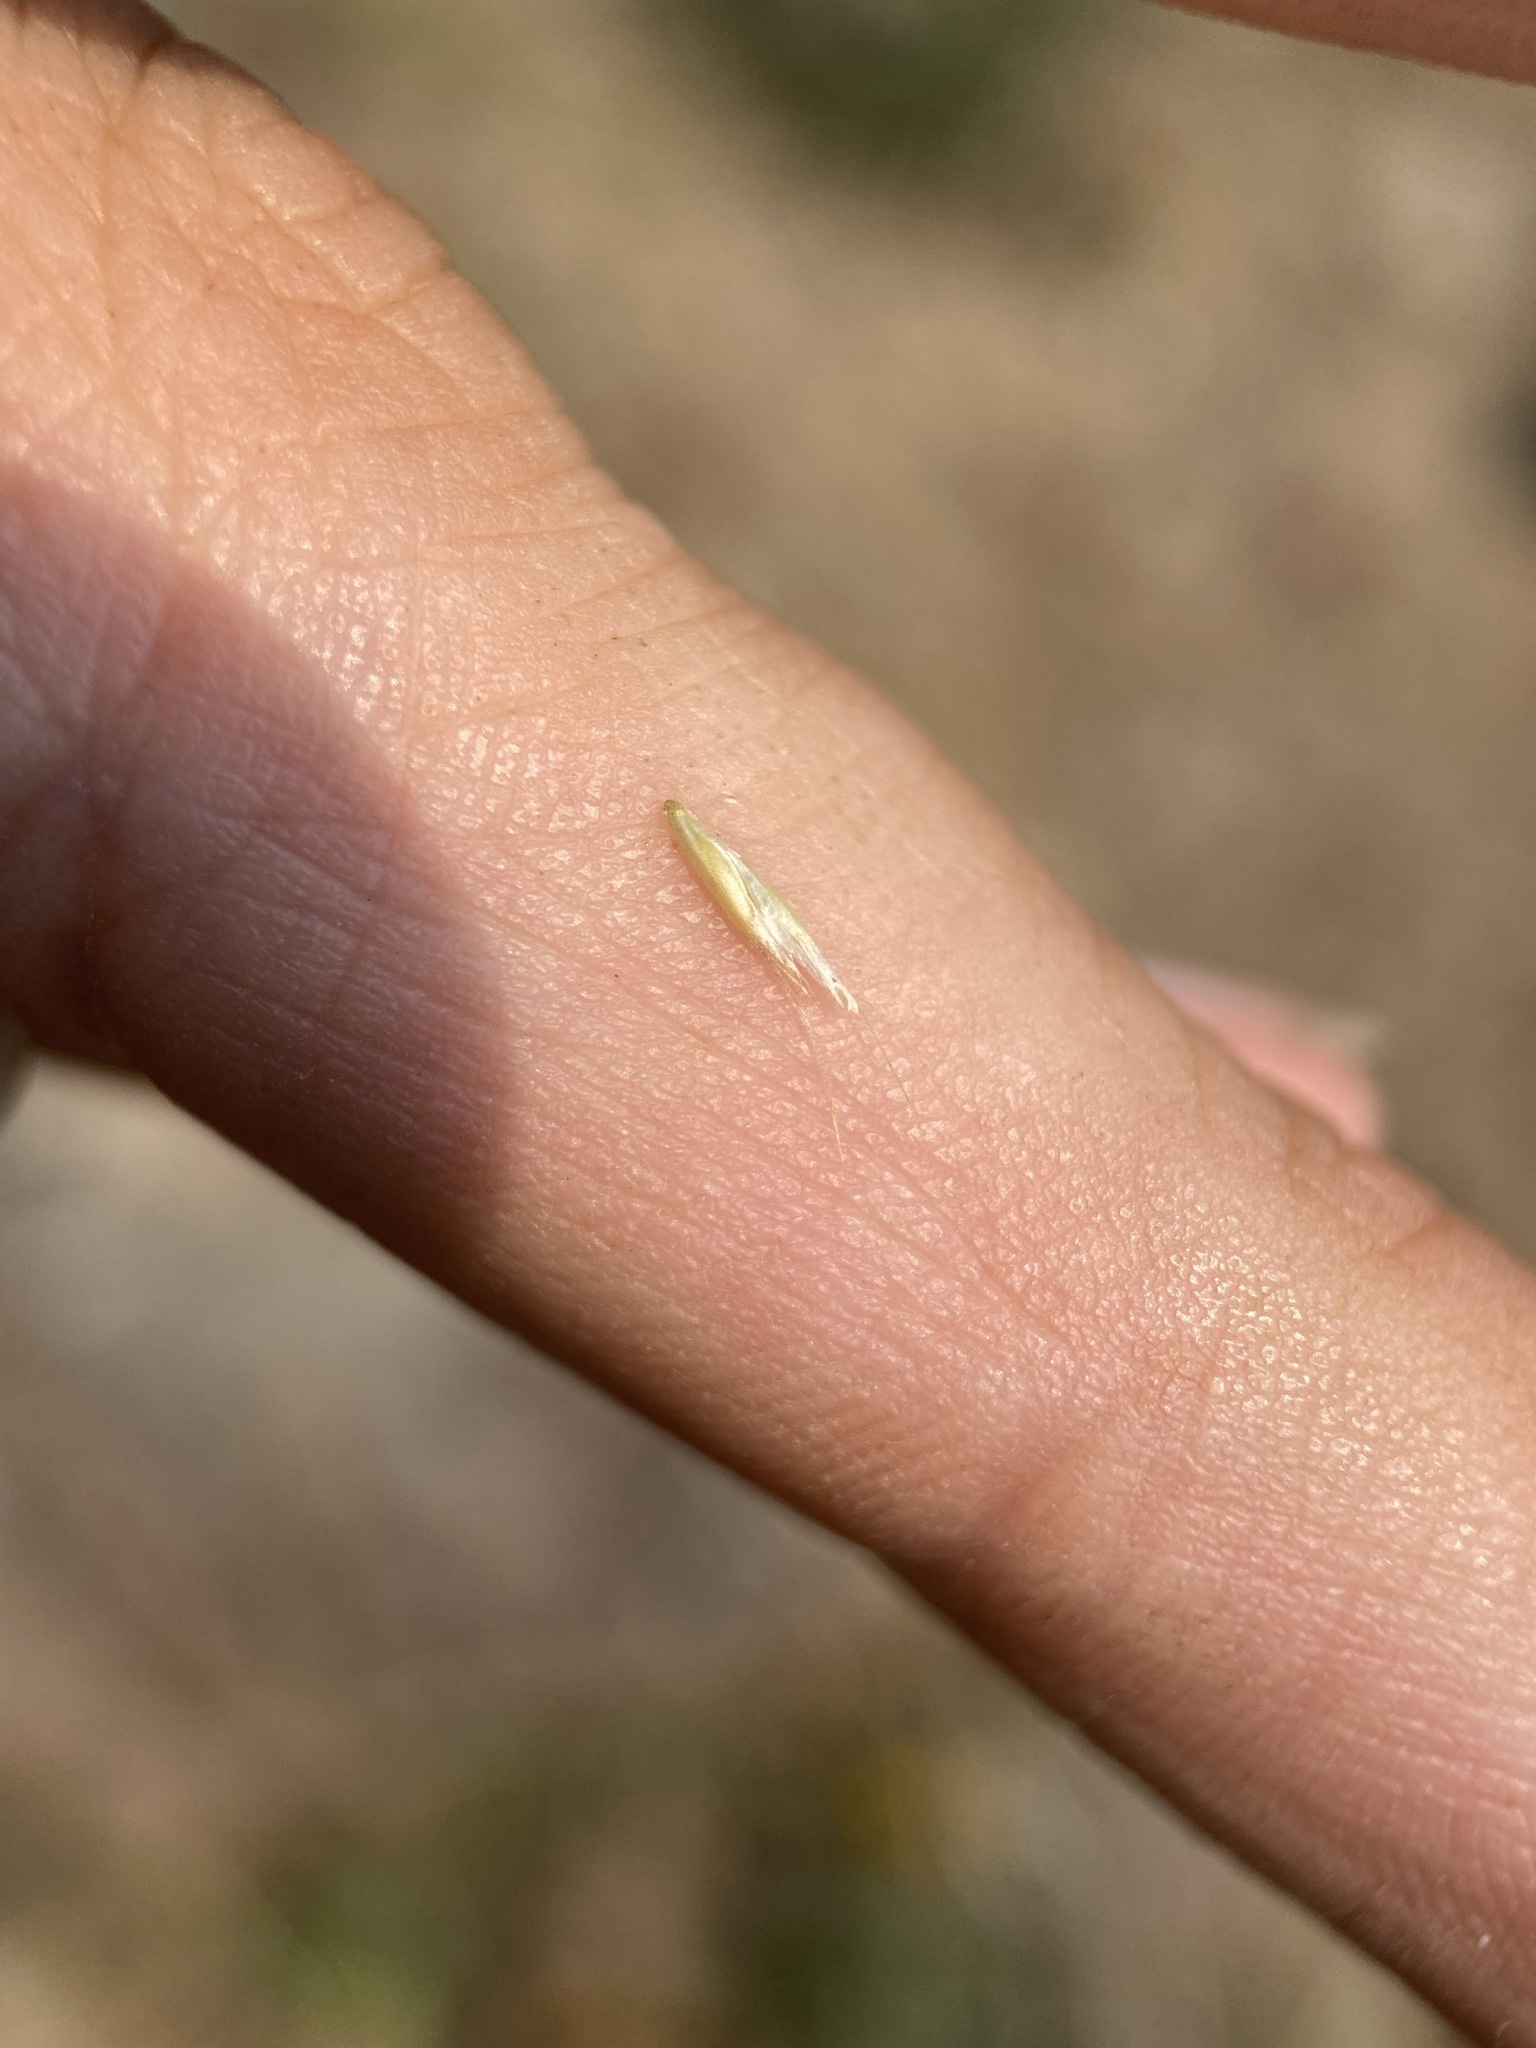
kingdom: Plantae
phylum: Tracheophyta
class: Liliopsida
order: Poales
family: Poaceae
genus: Koeleria
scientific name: Koeleria spicata
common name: Mountain trisetum
